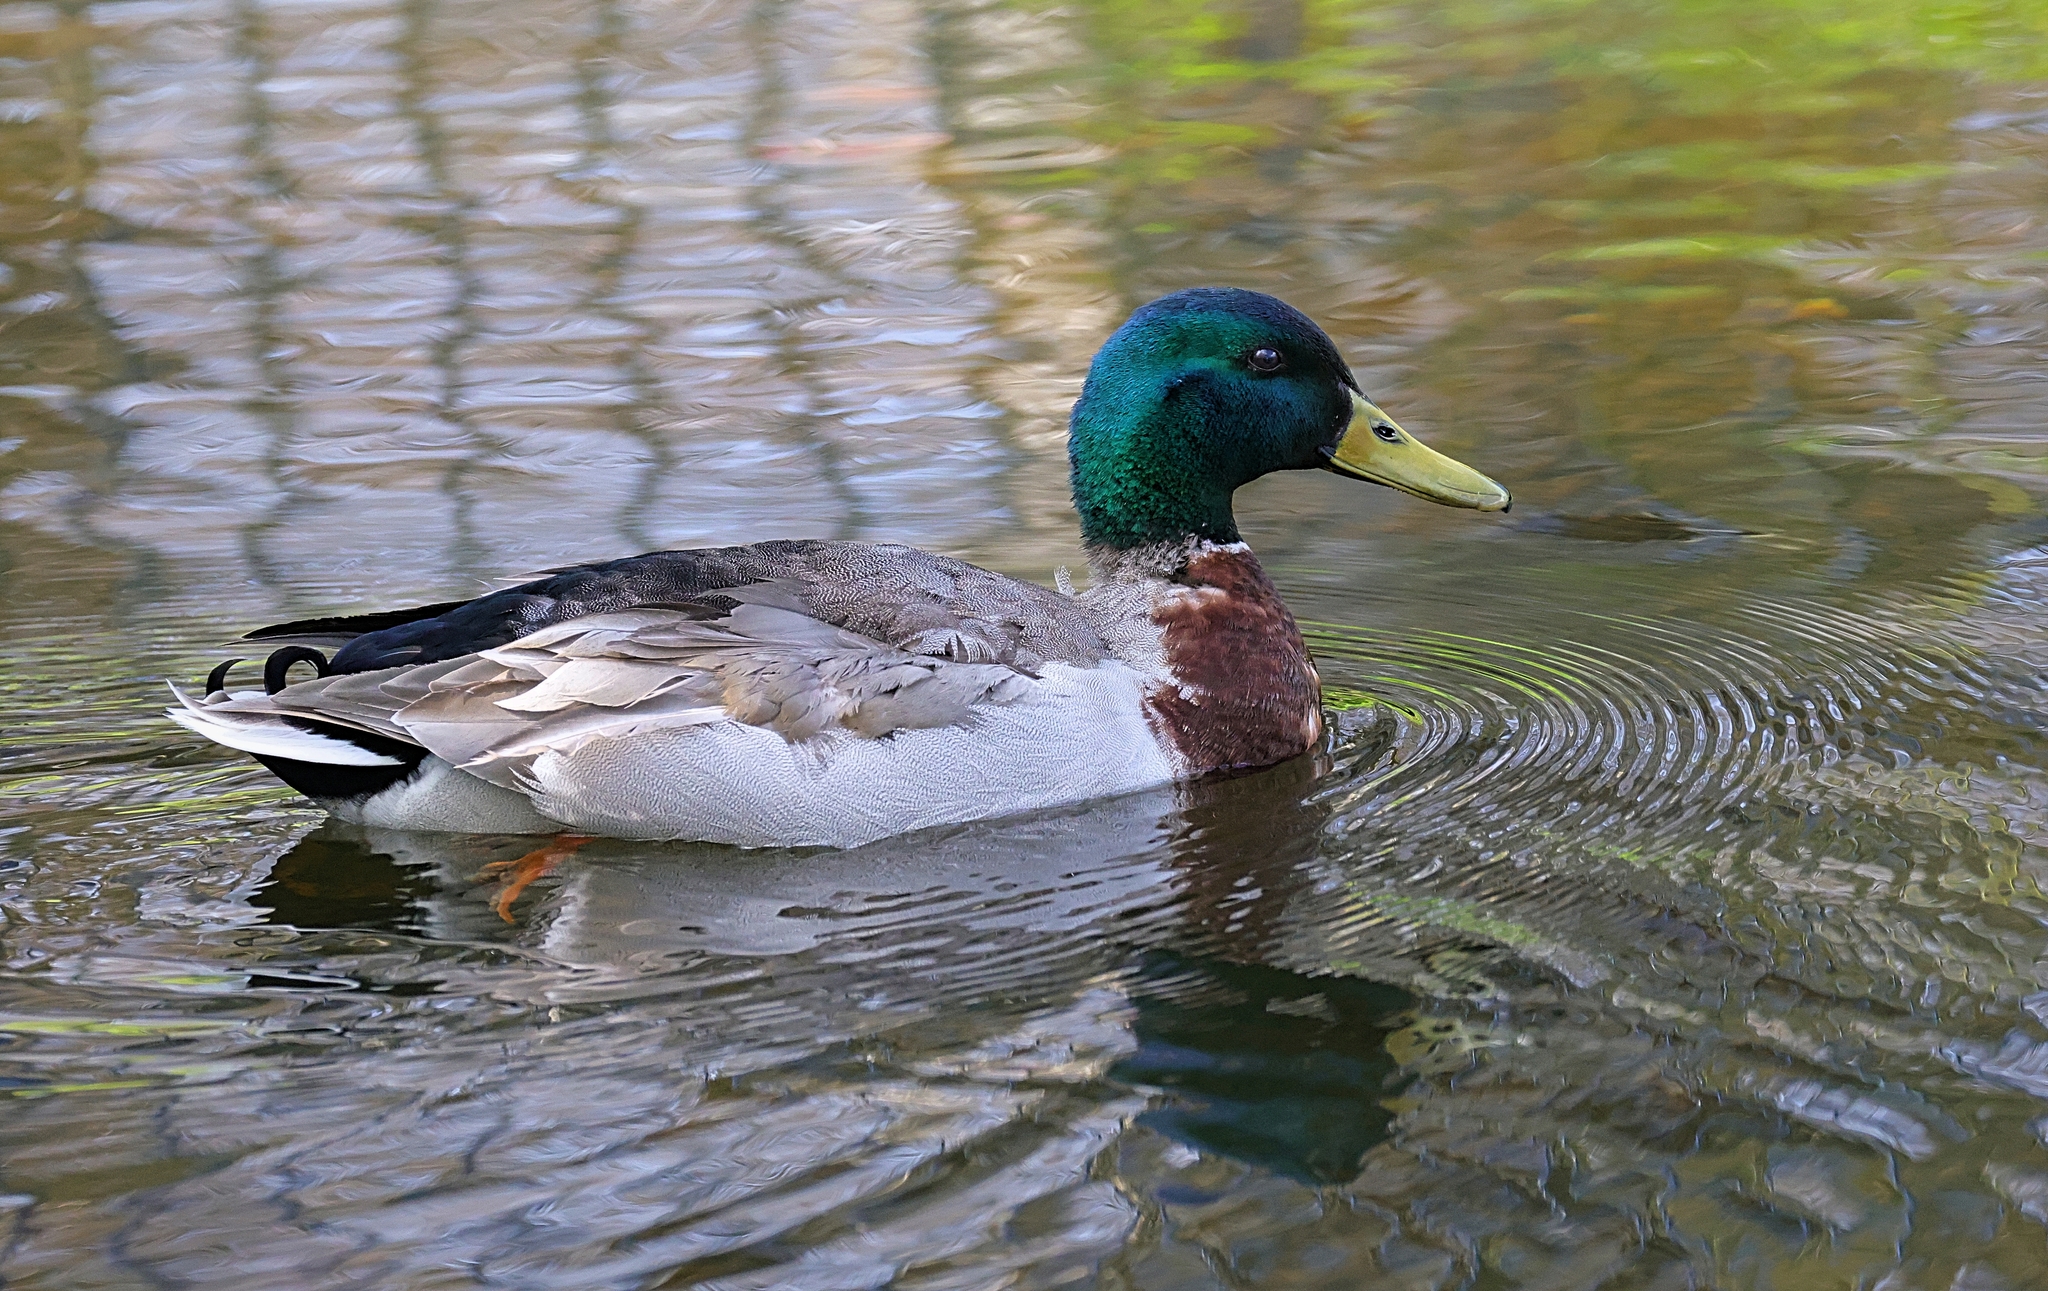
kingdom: Animalia
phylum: Chordata
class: Aves
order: Anseriformes
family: Anatidae
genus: Anas
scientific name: Anas platyrhynchos
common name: Mallard
